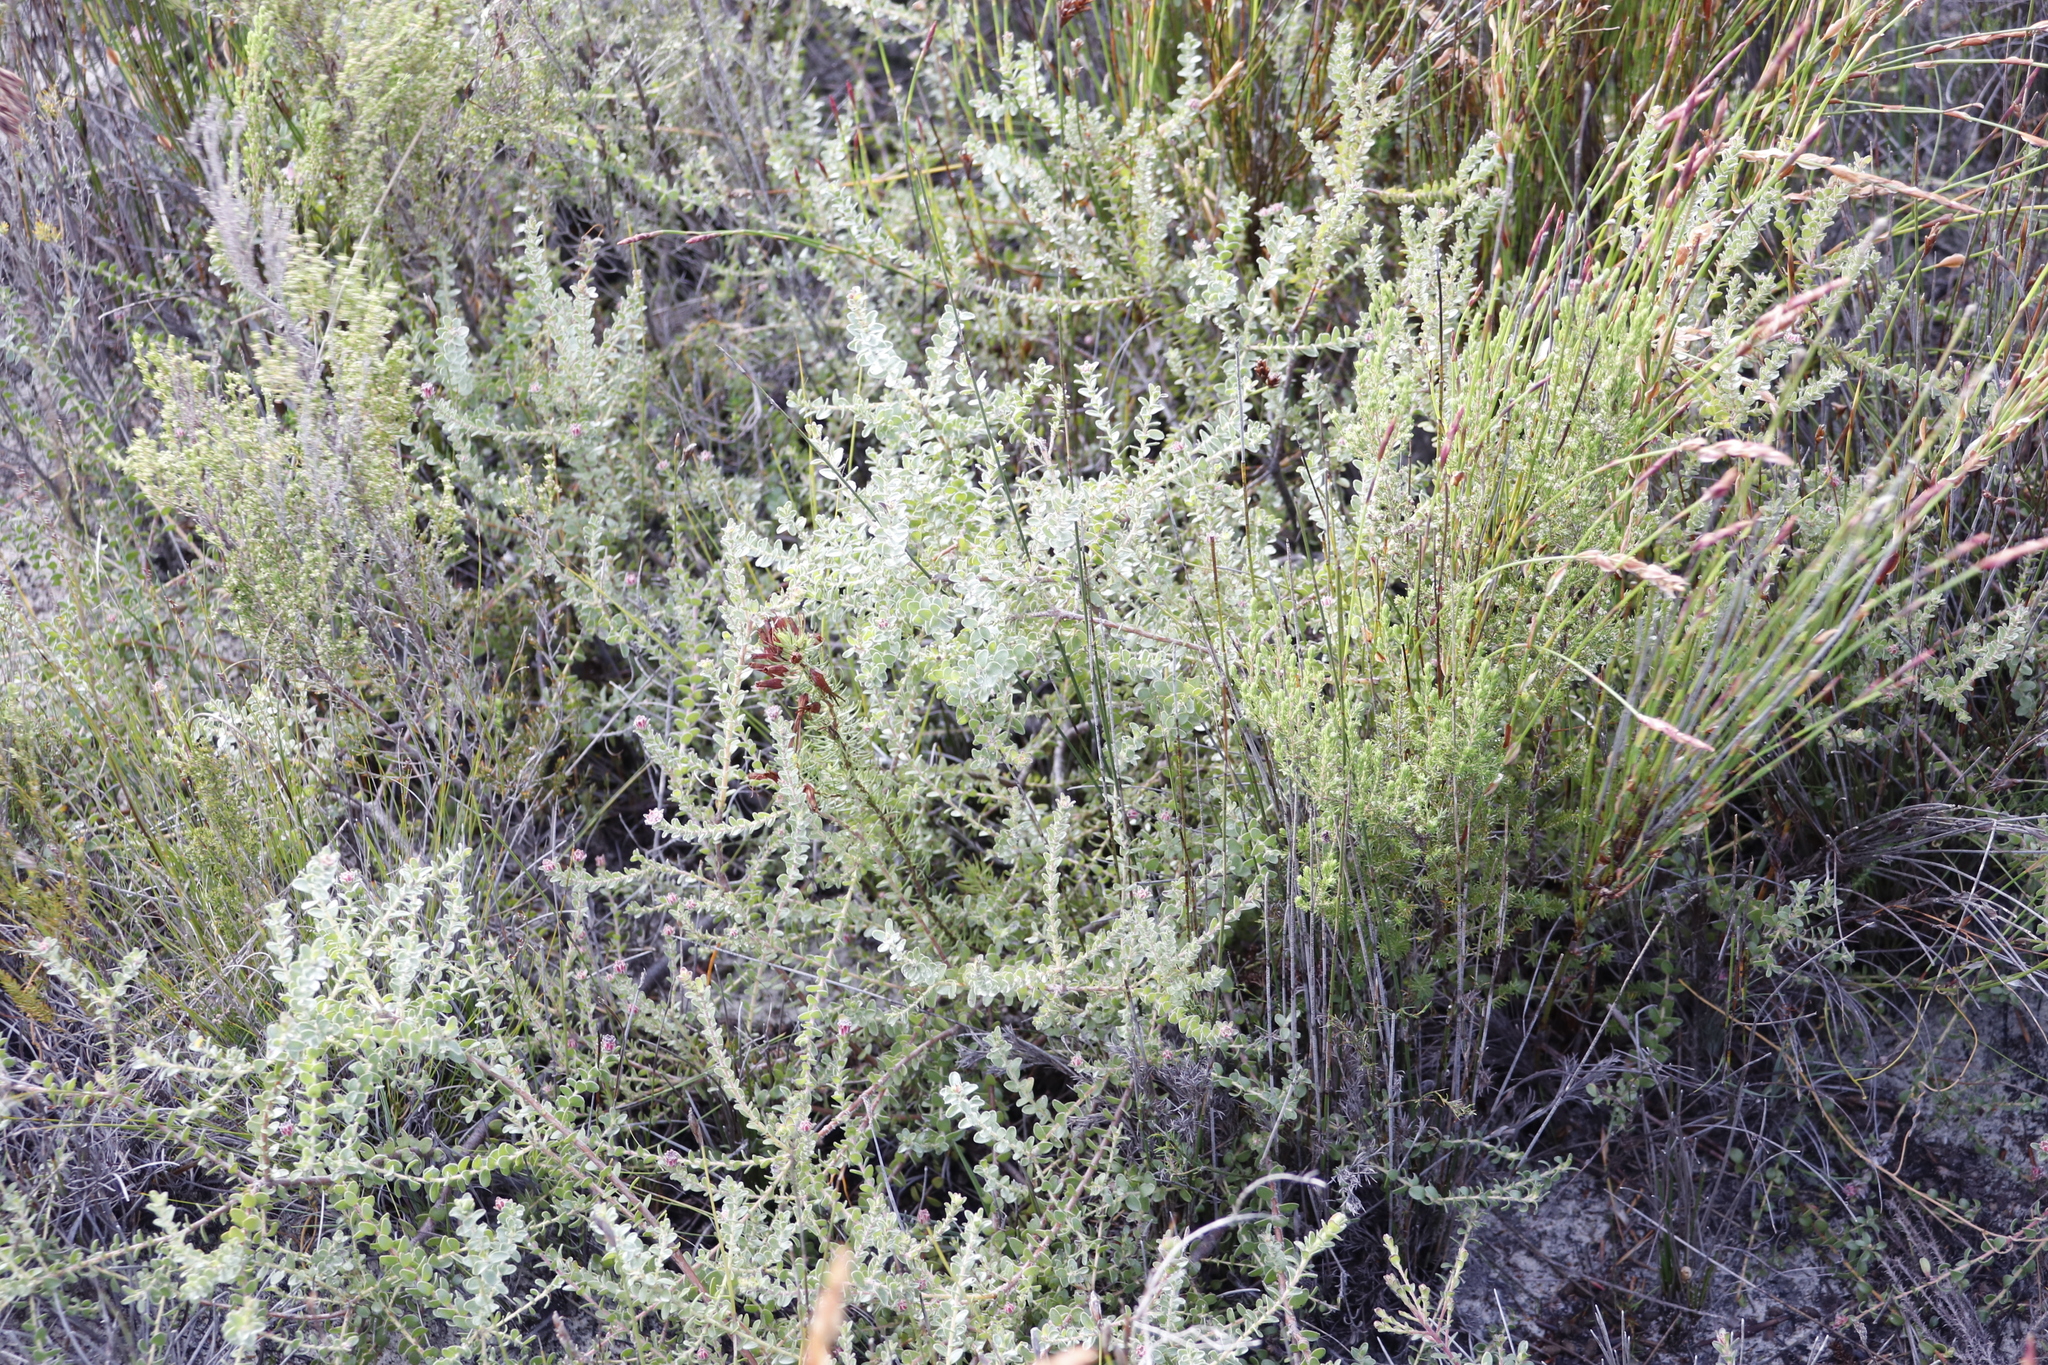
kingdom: Plantae
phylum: Tracheophyta
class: Magnoliopsida
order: Proteales
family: Proteaceae
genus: Diastella
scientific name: Diastella divaricata
